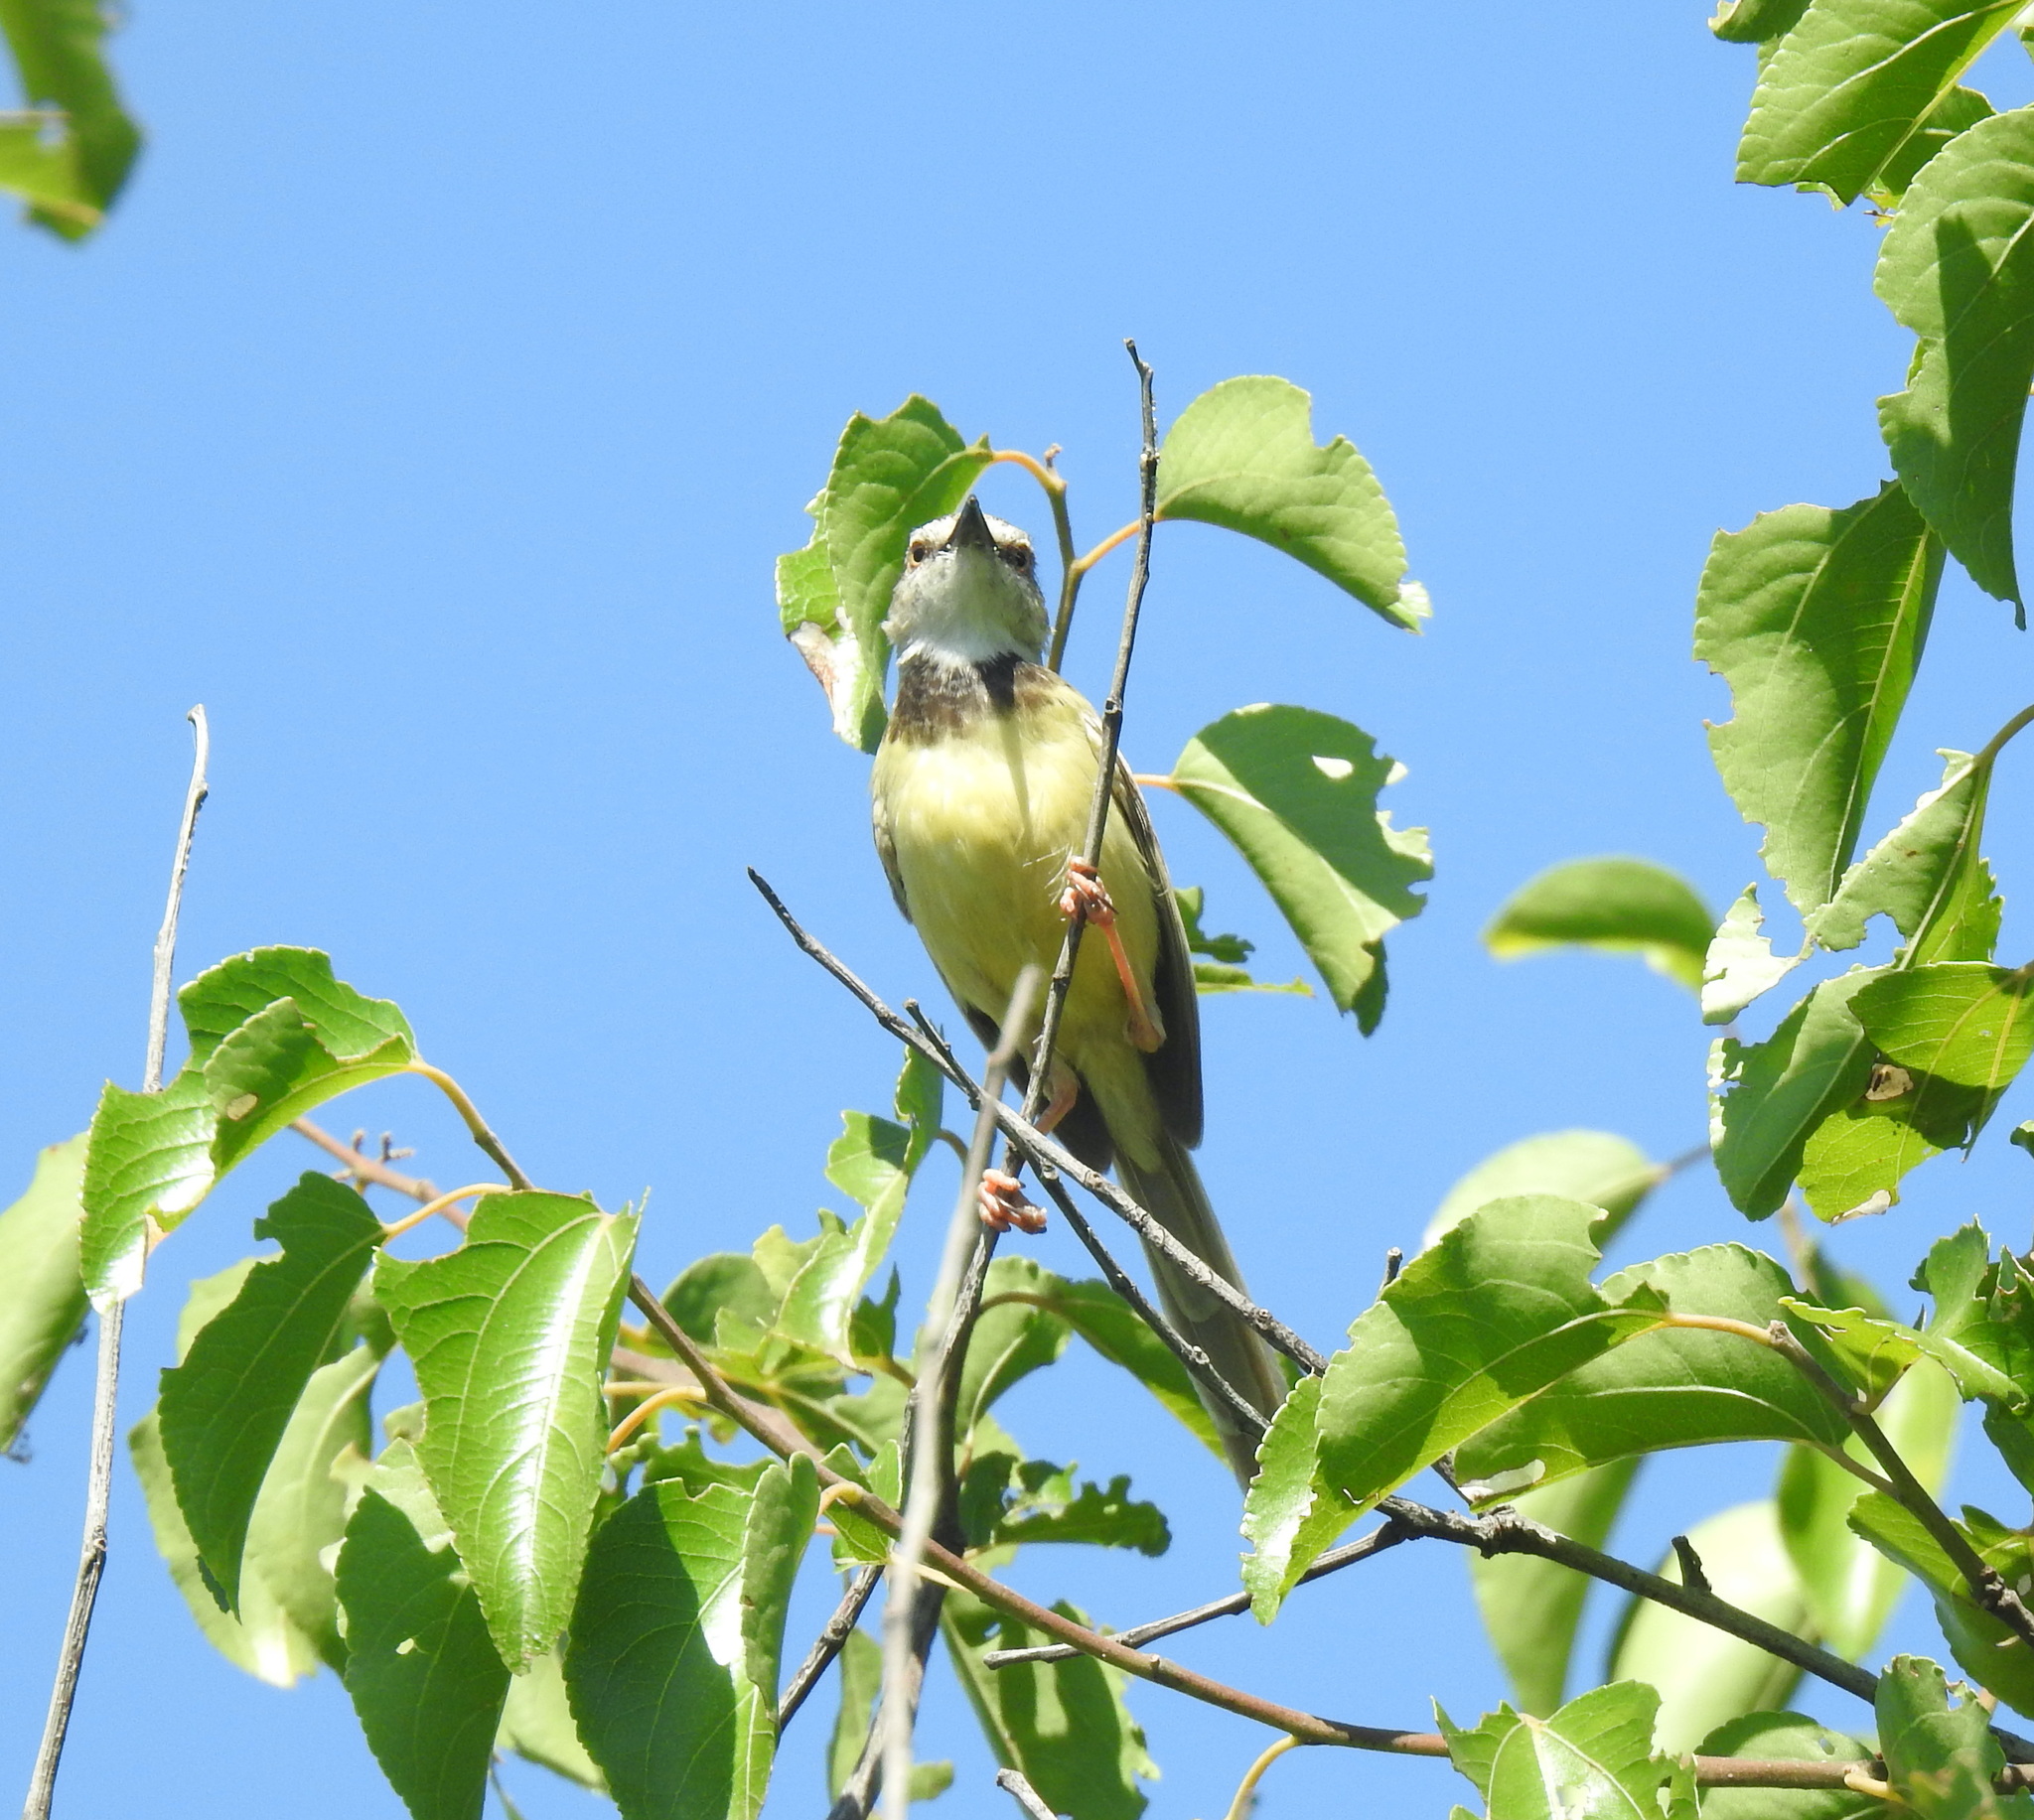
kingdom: Animalia
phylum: Chordata
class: Aves
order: Passeriformes
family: Cisticolidae
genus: Prinia
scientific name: Prinia flavicans
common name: Black-chested prinia
